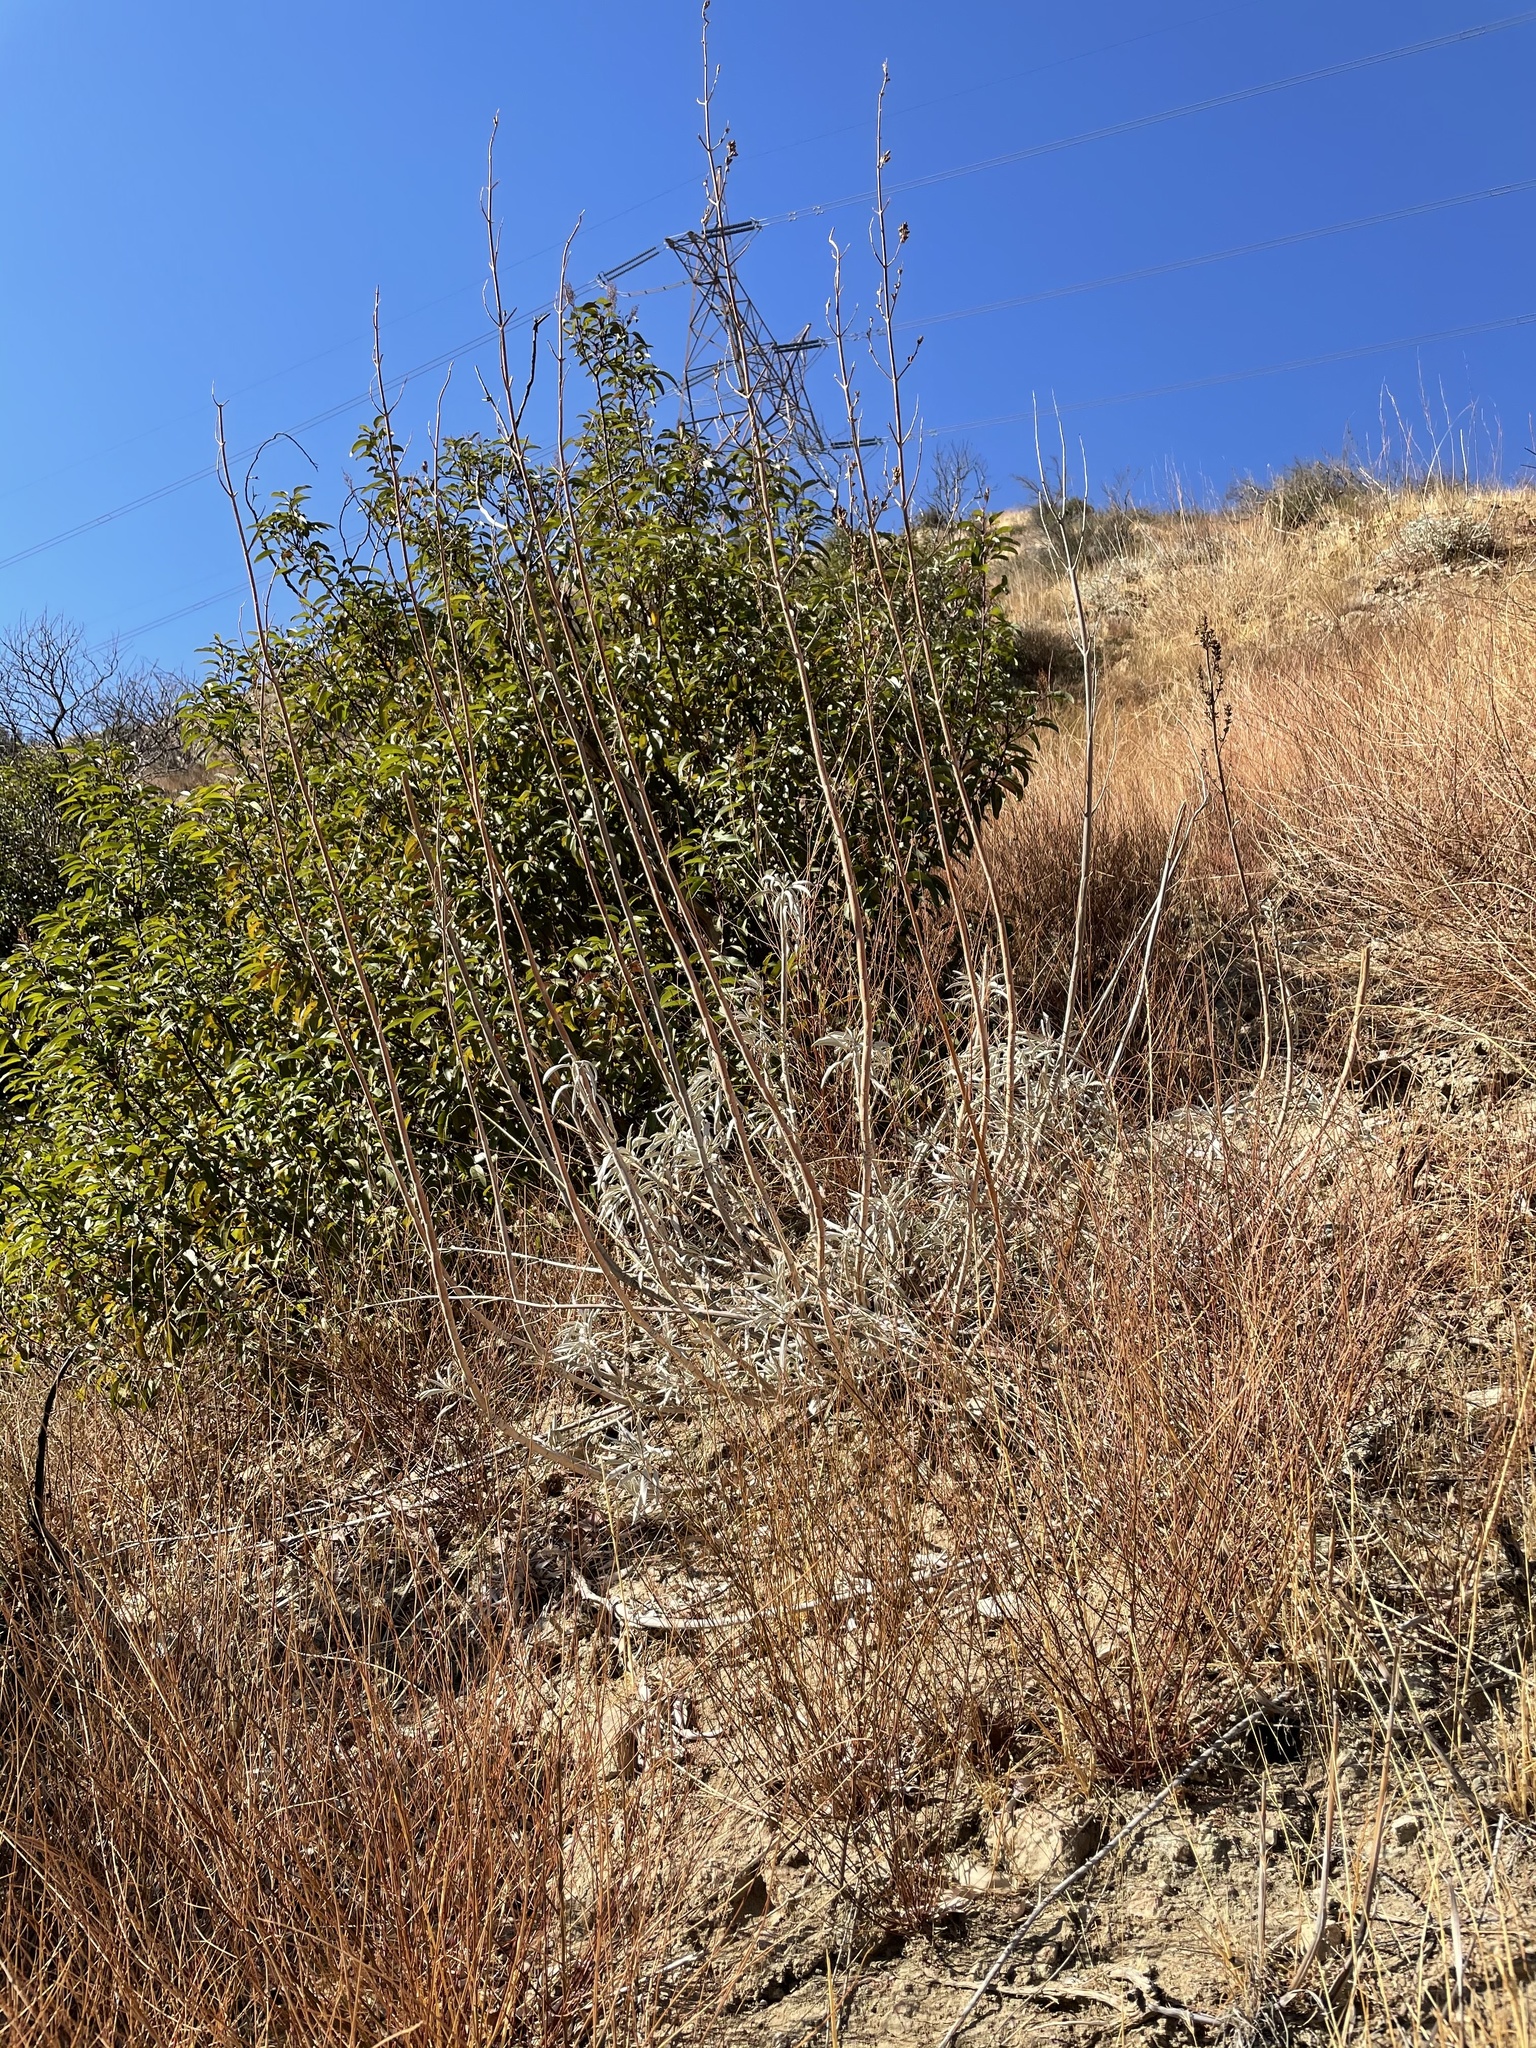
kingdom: Plantae
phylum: Tracheophyta
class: Magnoliopsida
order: Lamiales
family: Lamiaceae
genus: Salvia
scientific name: Salvia apiana
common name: White sage
